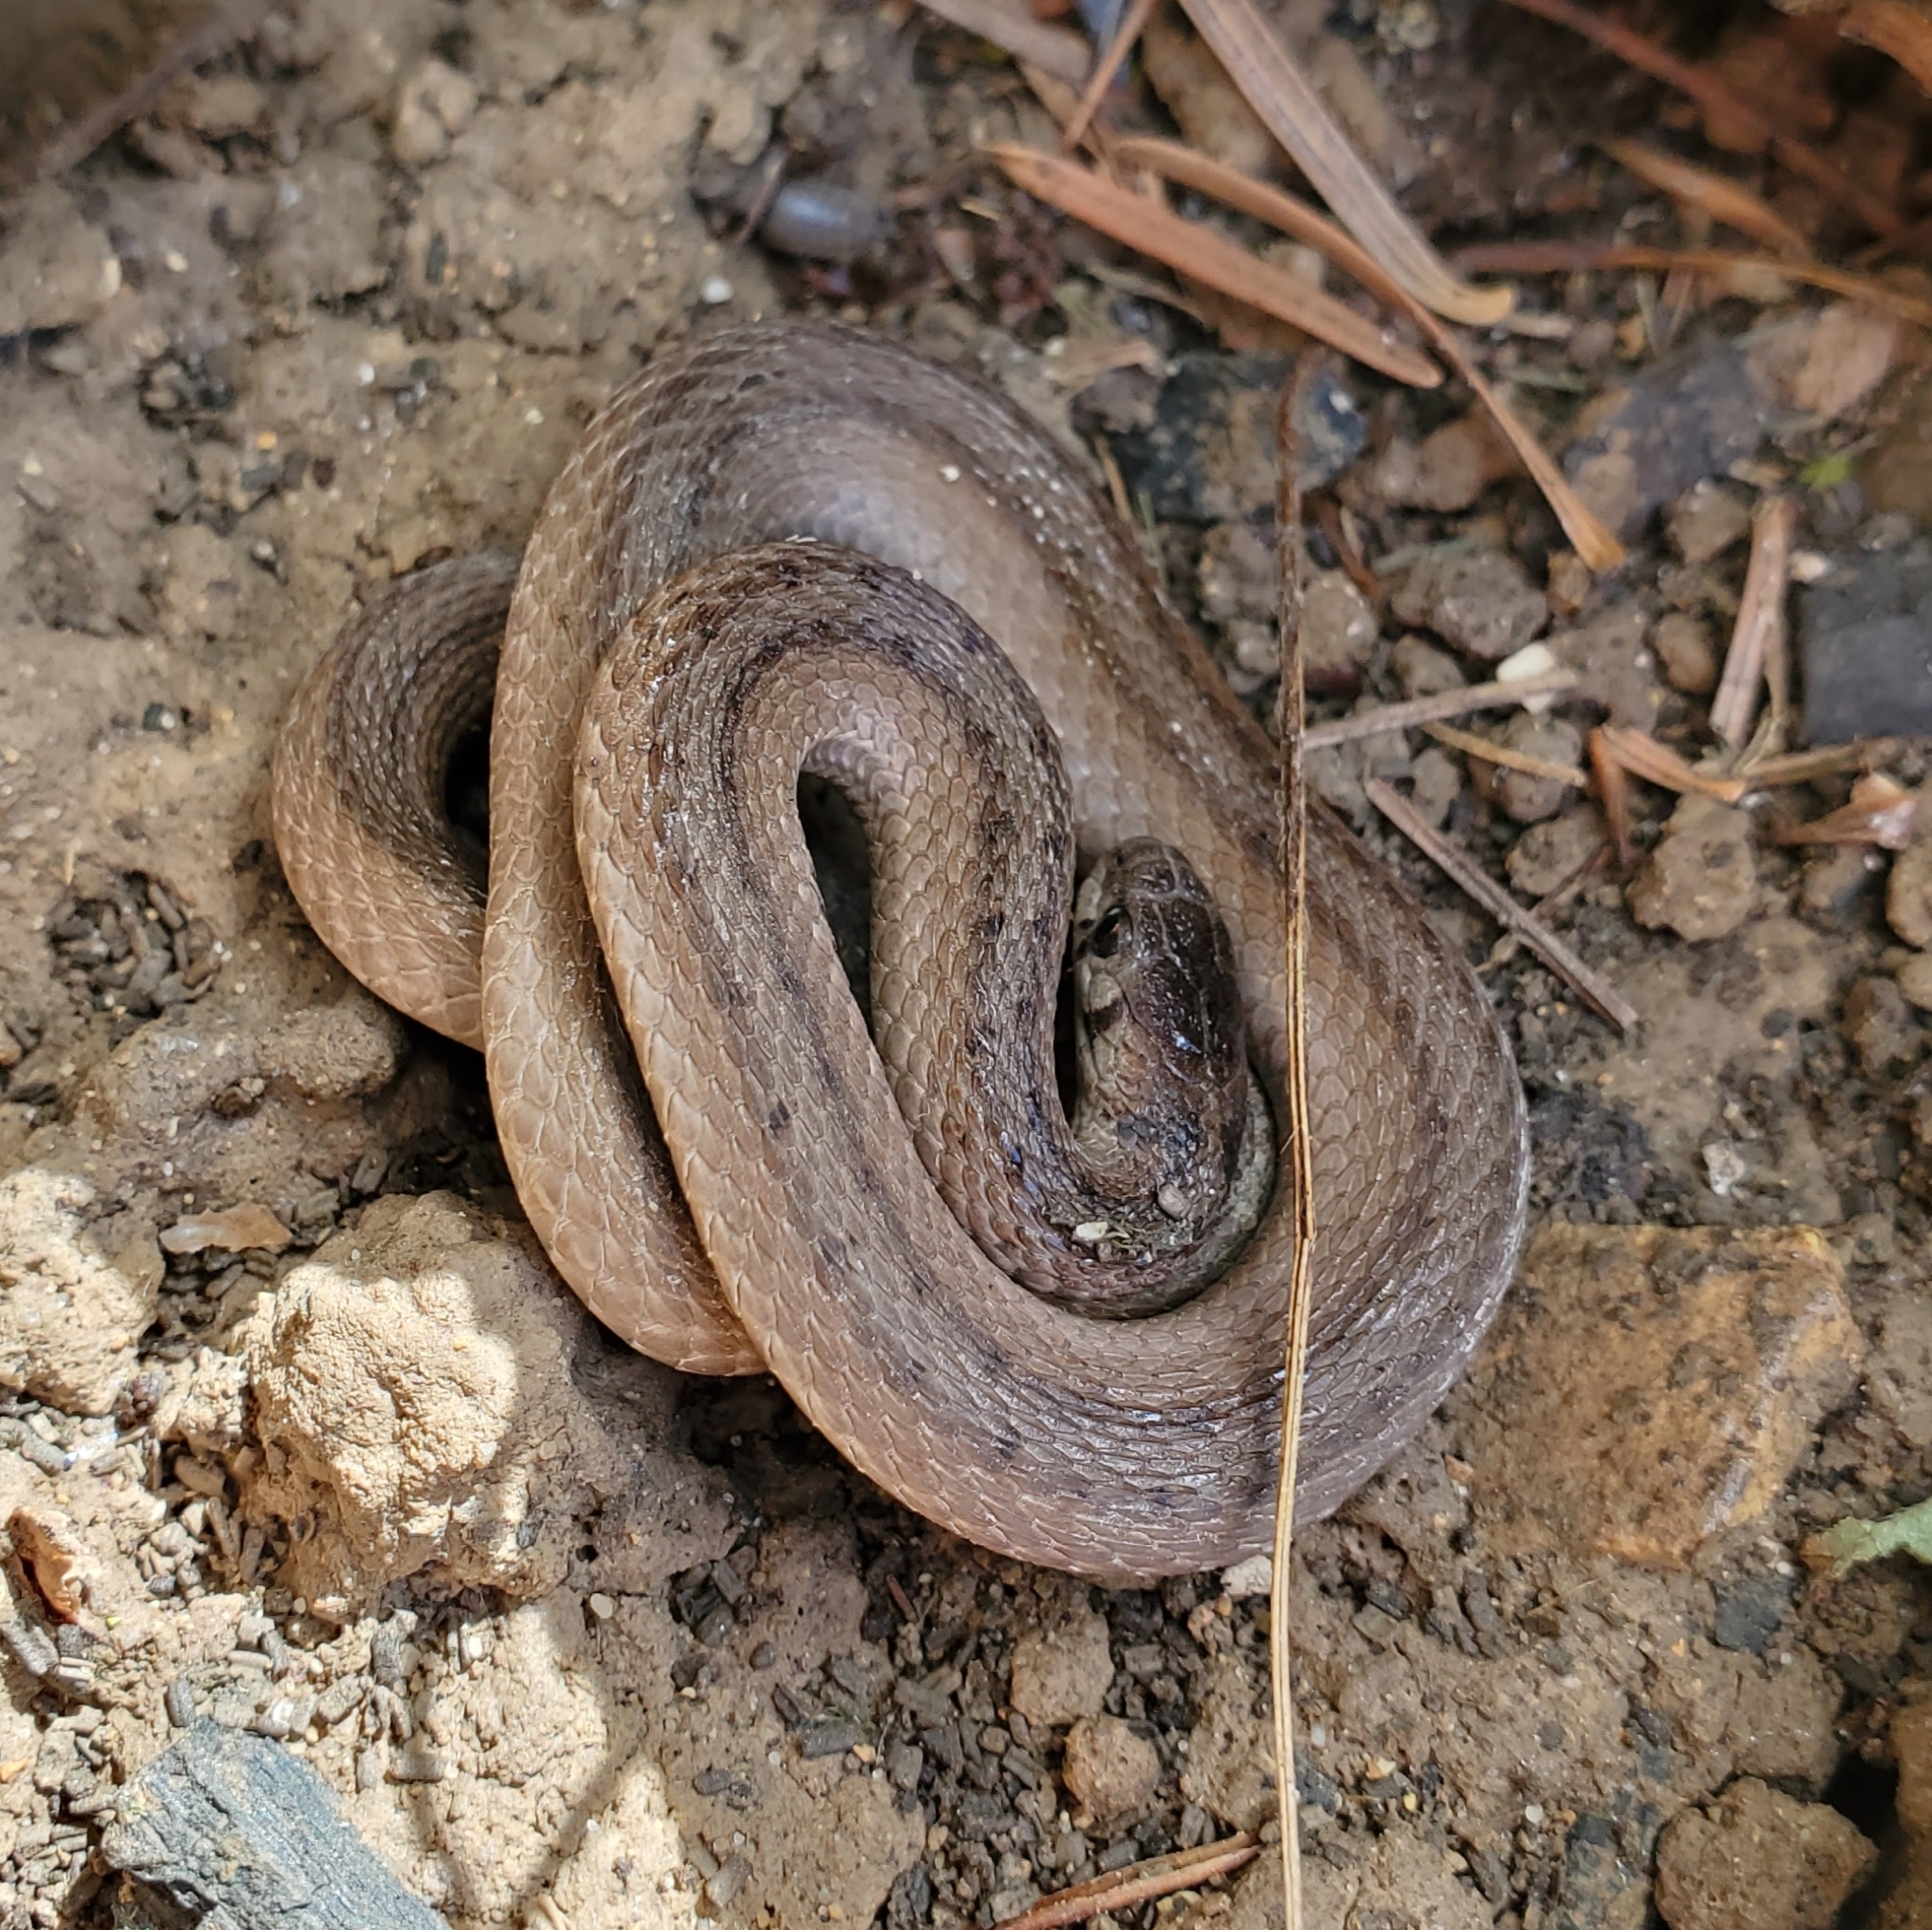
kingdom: Animalia
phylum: Chordata
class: Squamata
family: Colubridae
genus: Storeria
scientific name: Storeria dekayi
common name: (dekay’s) brown snake
